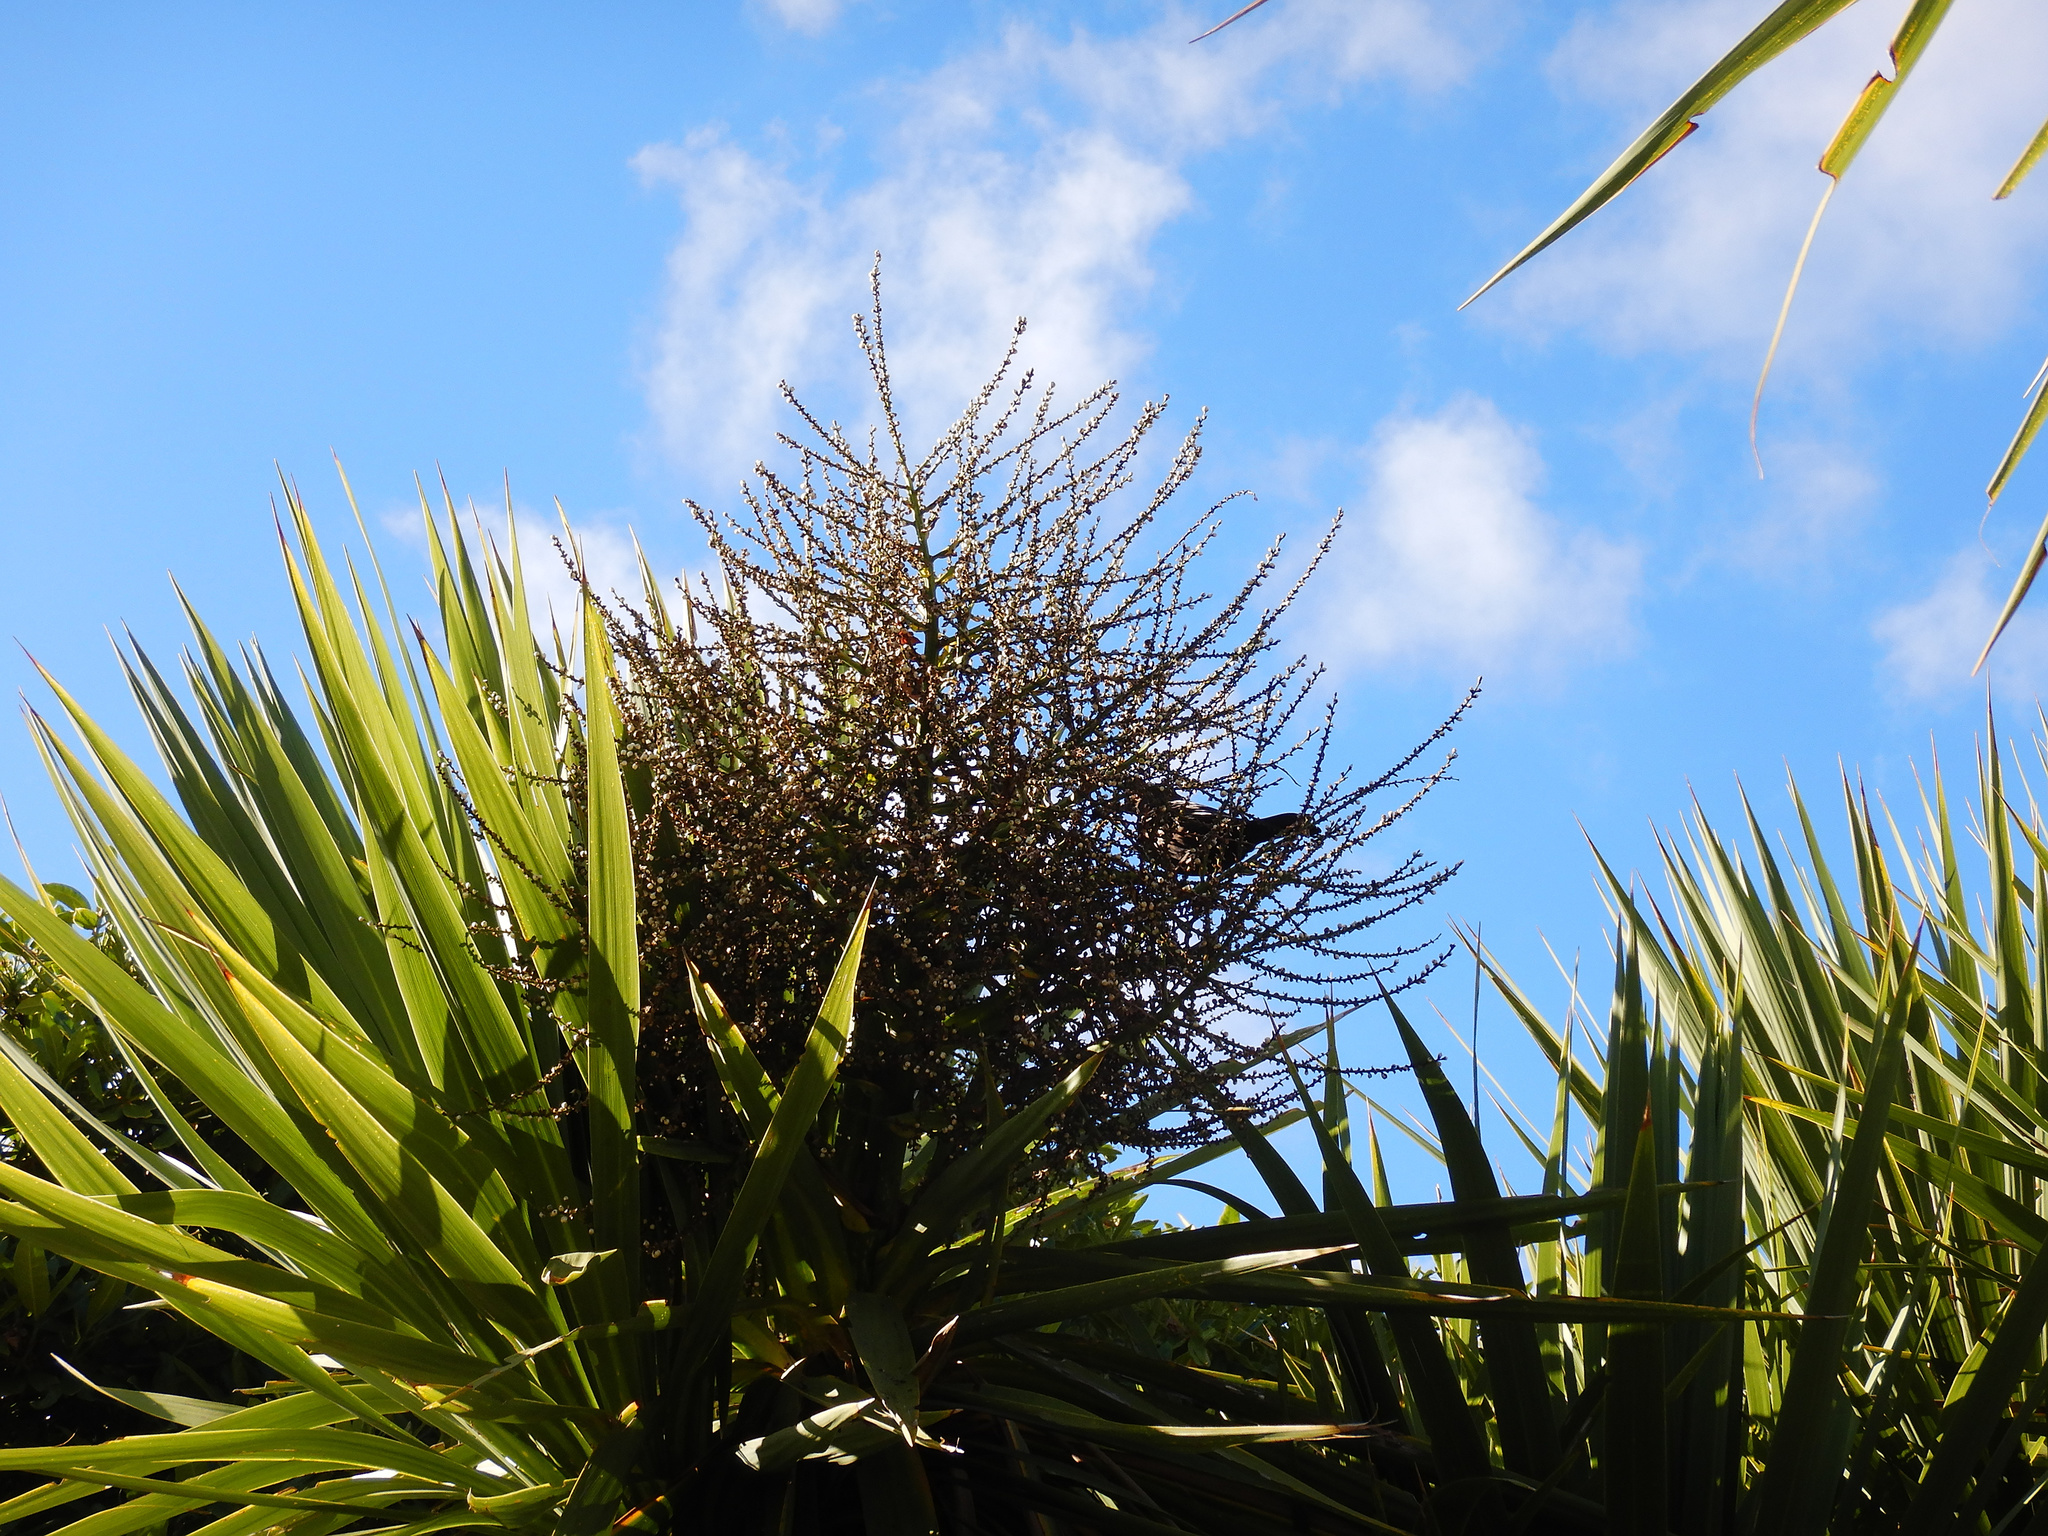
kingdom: Animalia
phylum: Chordata
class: Aves
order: Passeriformes
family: Turdidae
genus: Turdus
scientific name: Turdus merula
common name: Common blackbird
